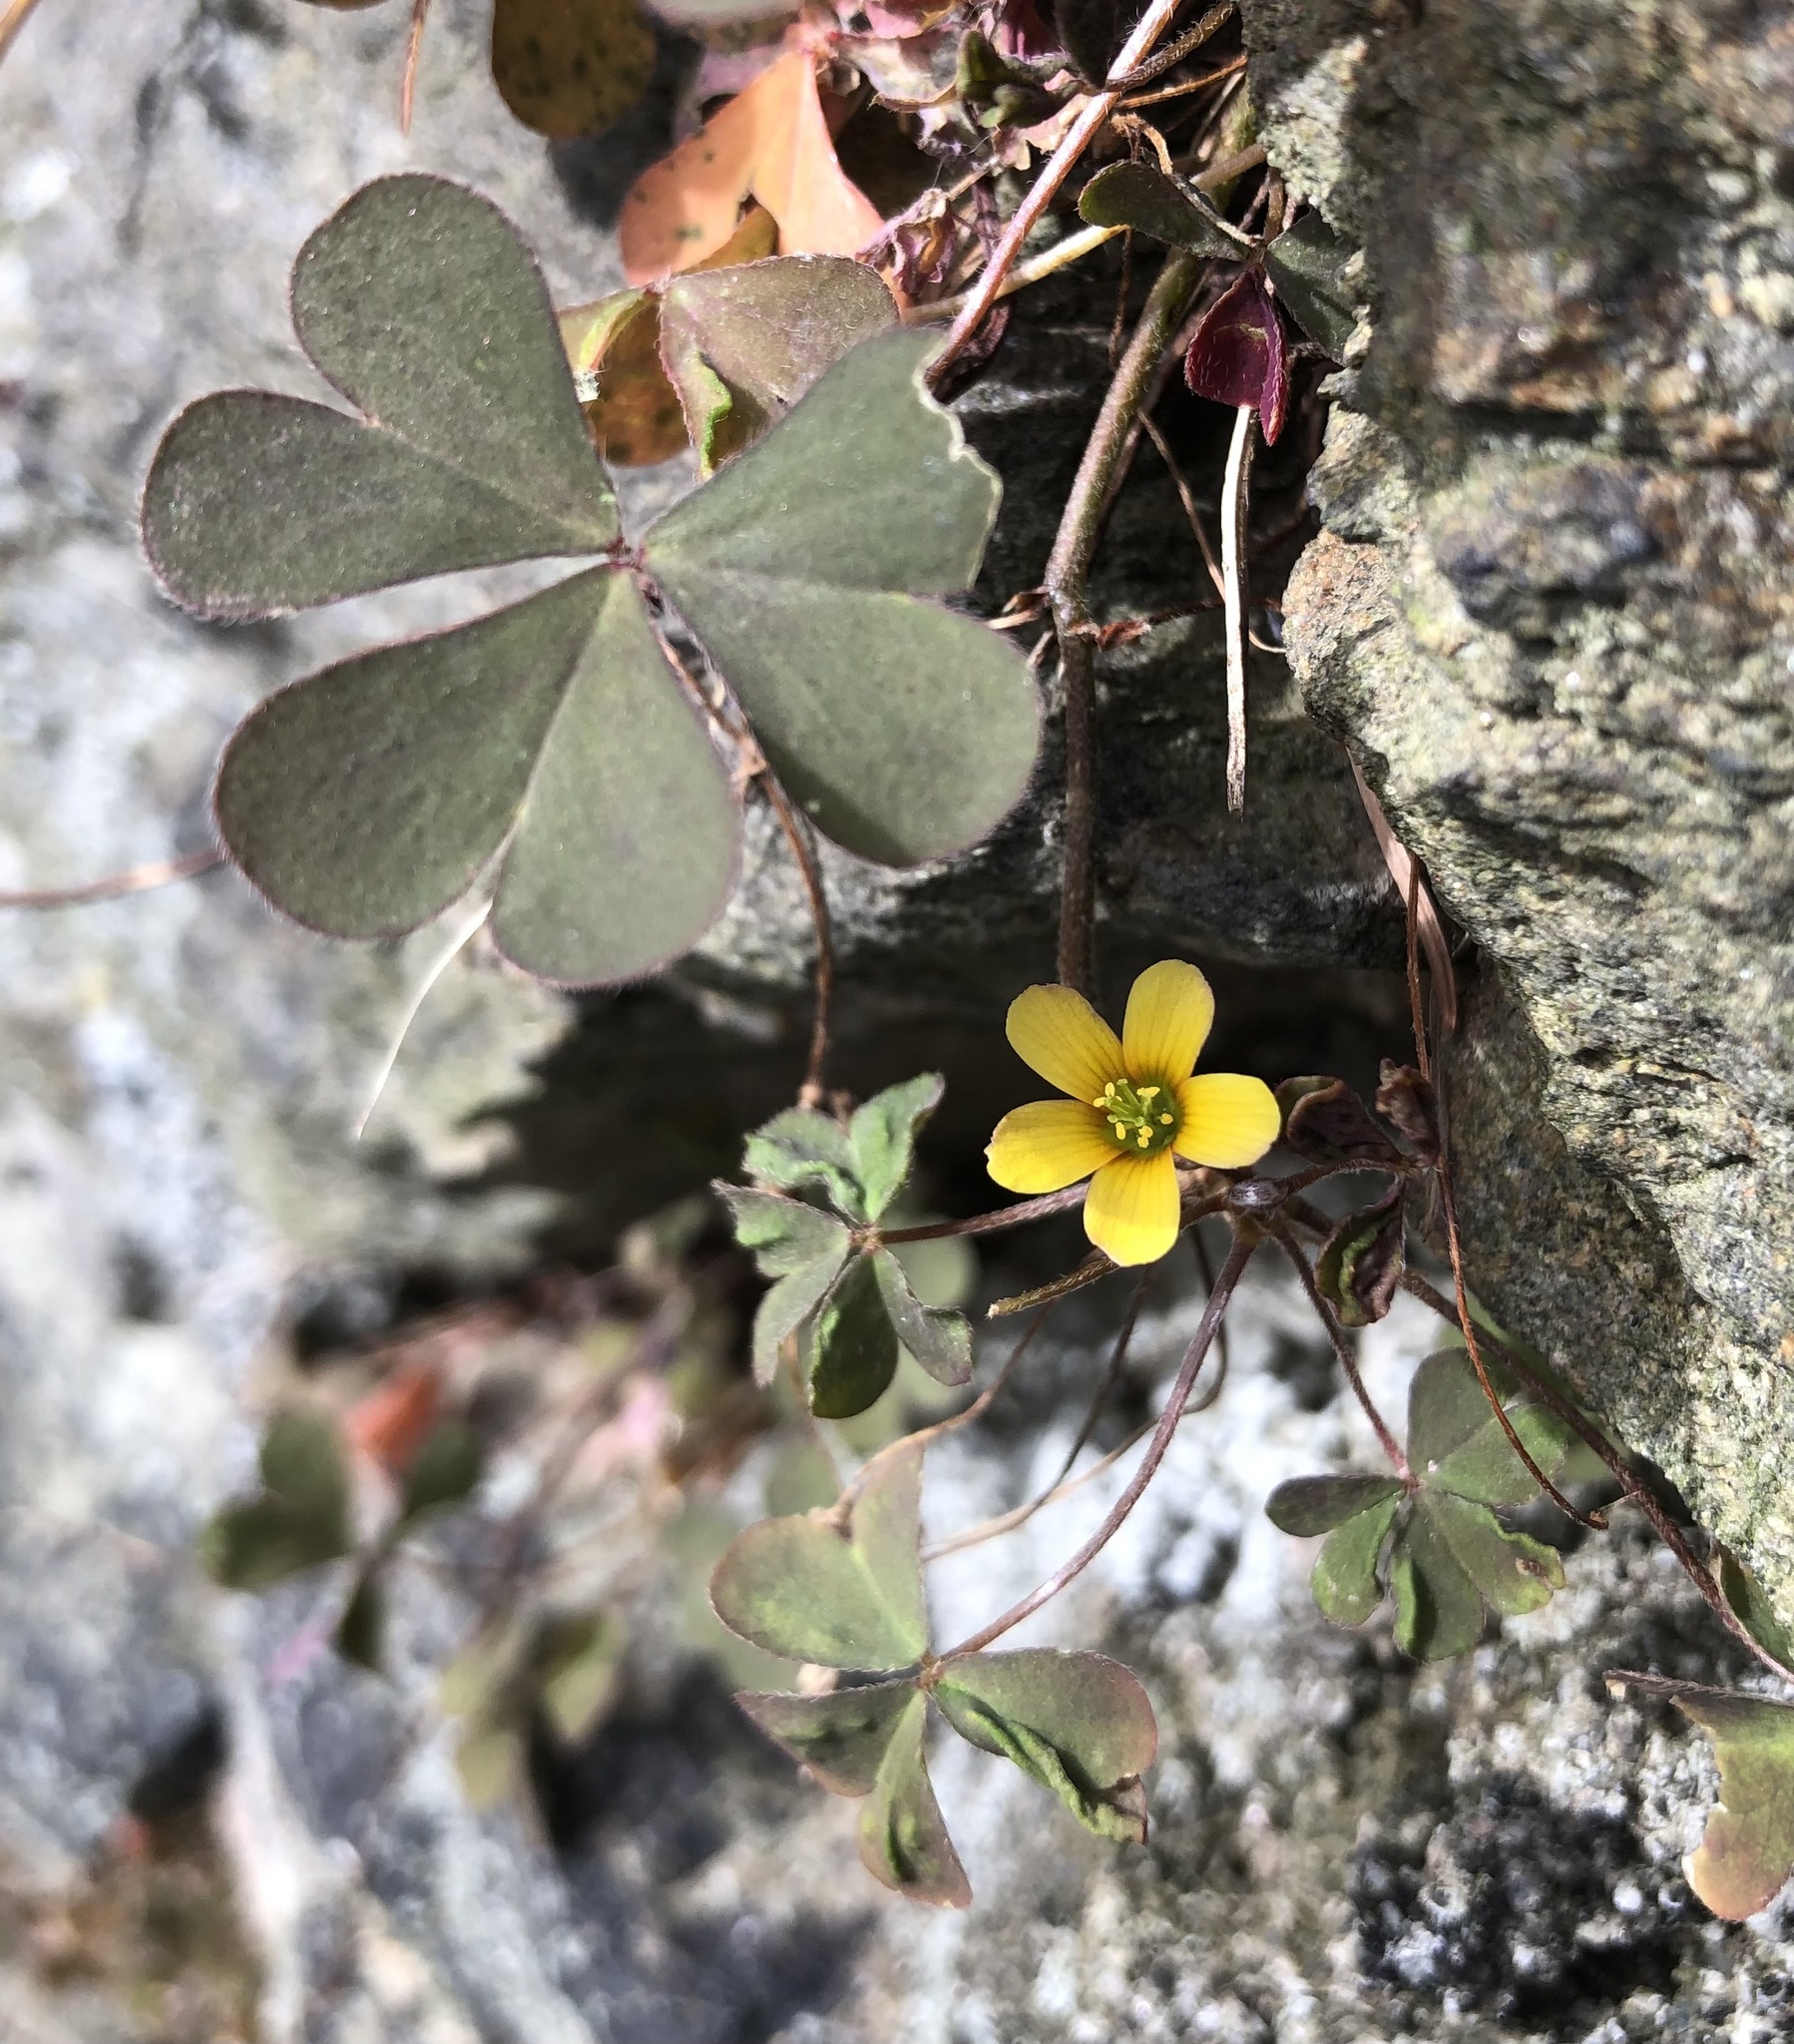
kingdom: Plantae
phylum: Tracheophyta
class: Magnoliopsida
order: Oxalidales
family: Oxalidaceae
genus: Oxalis
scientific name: Oxalis corniculata
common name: Procumbent yellow-sorrel
